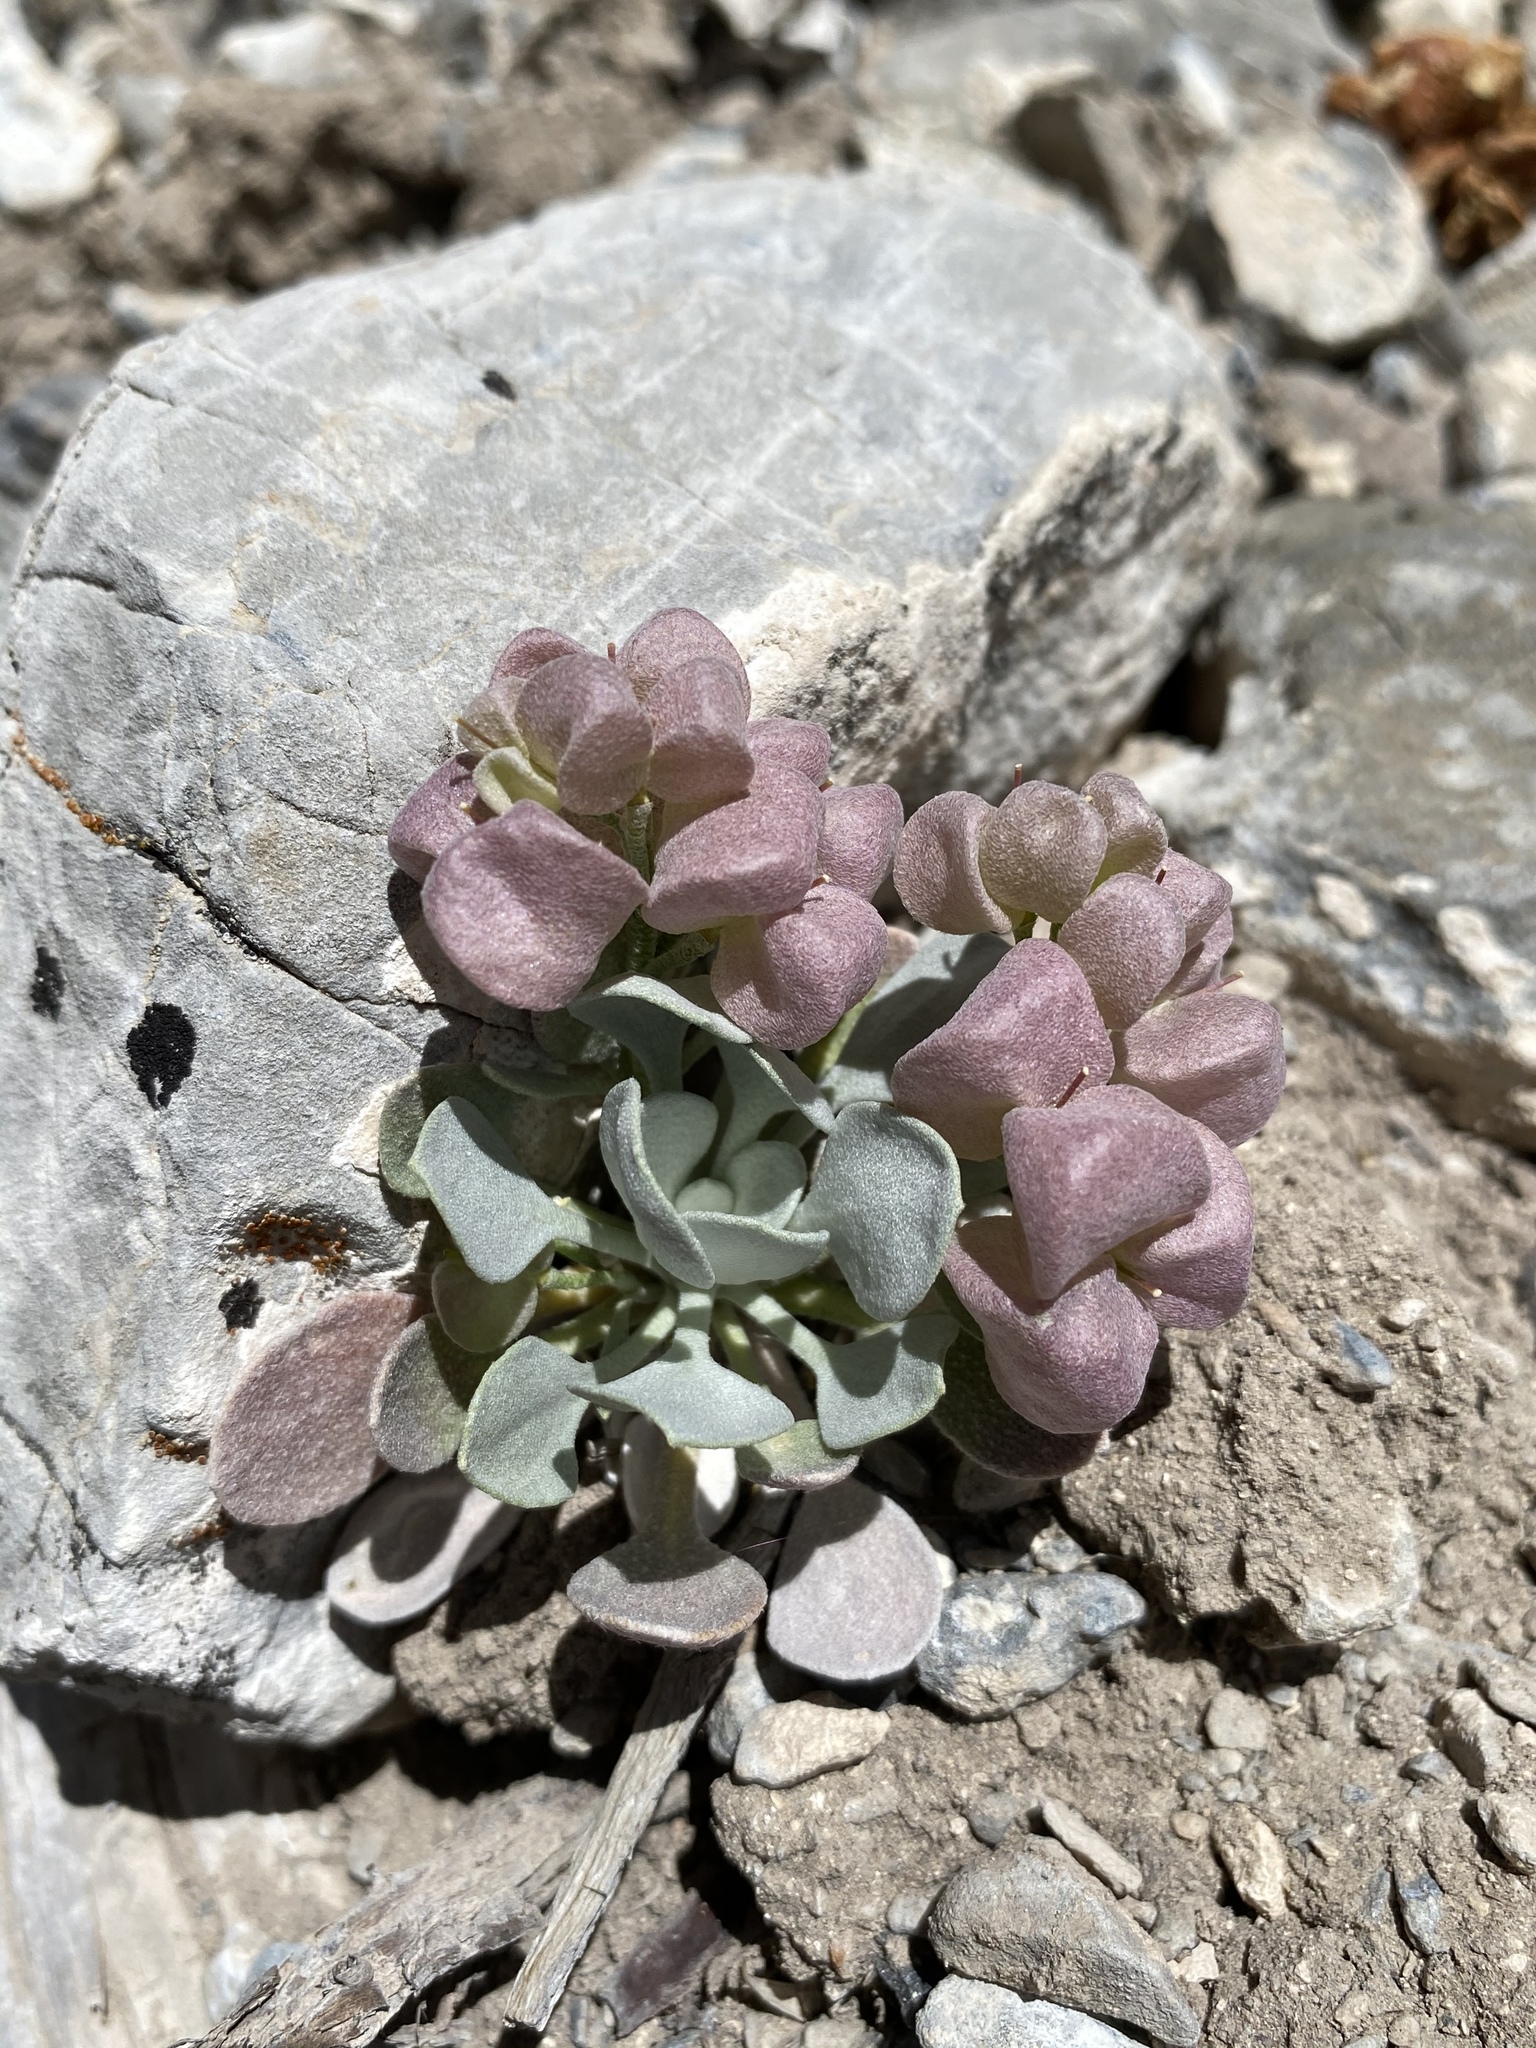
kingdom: Plantae
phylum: Tracheophyta
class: Magnoliopsida
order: Brassicales
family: Brassicaceae
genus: Physaria
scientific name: Physaria chambersii
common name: Chamber's twinpod
